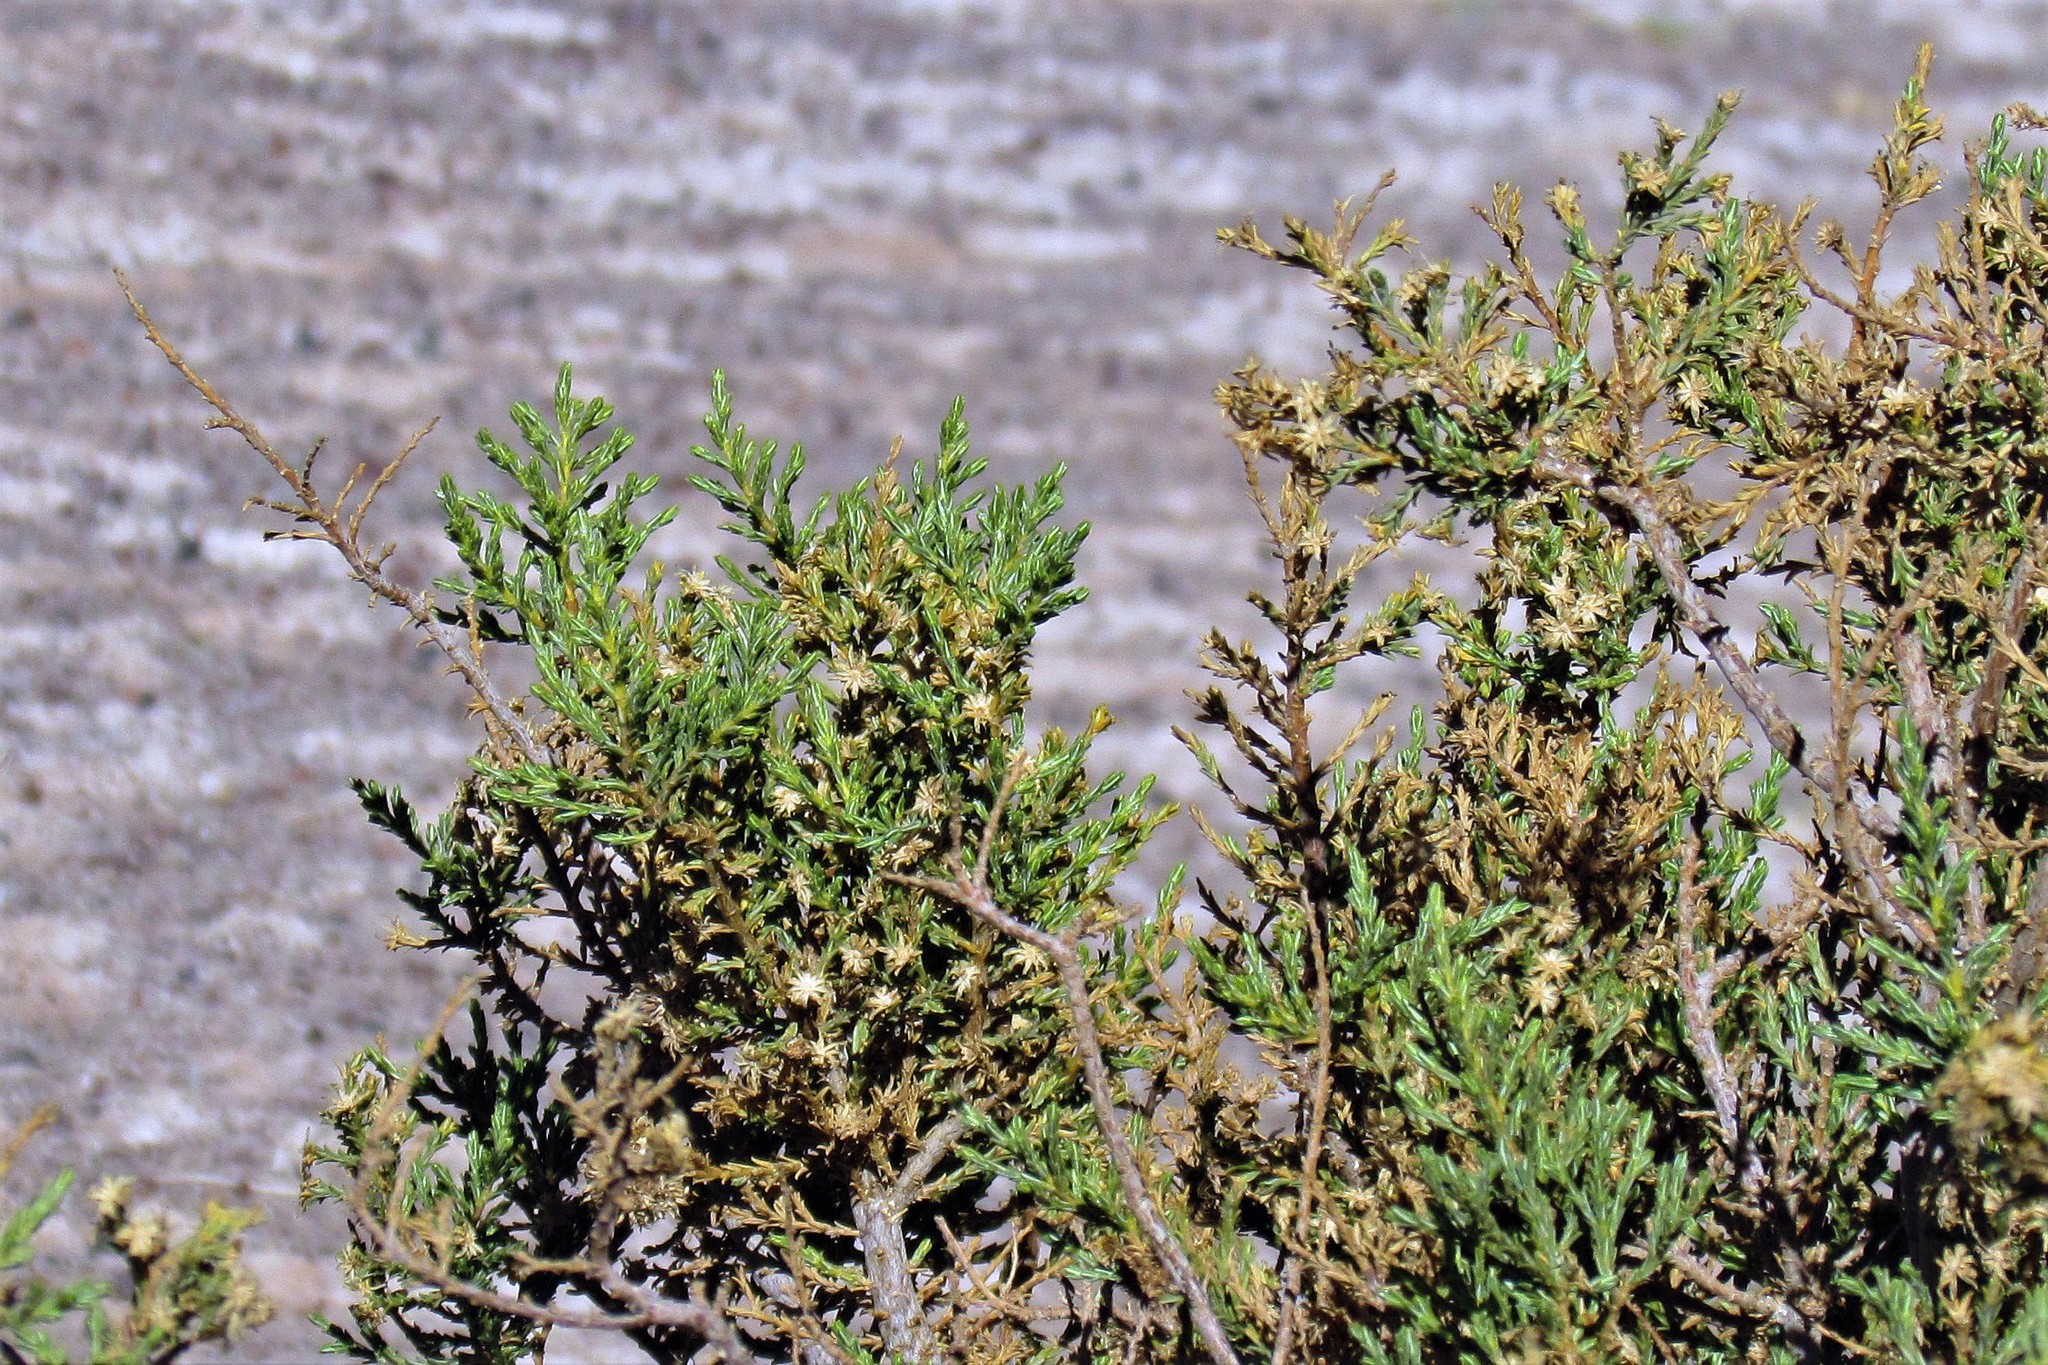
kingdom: Plantae
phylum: Tracheophyta
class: Magnoliopsida
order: Asterales
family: Asteraceae
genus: Parastrephia
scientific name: Parastrephia quadrangularis
